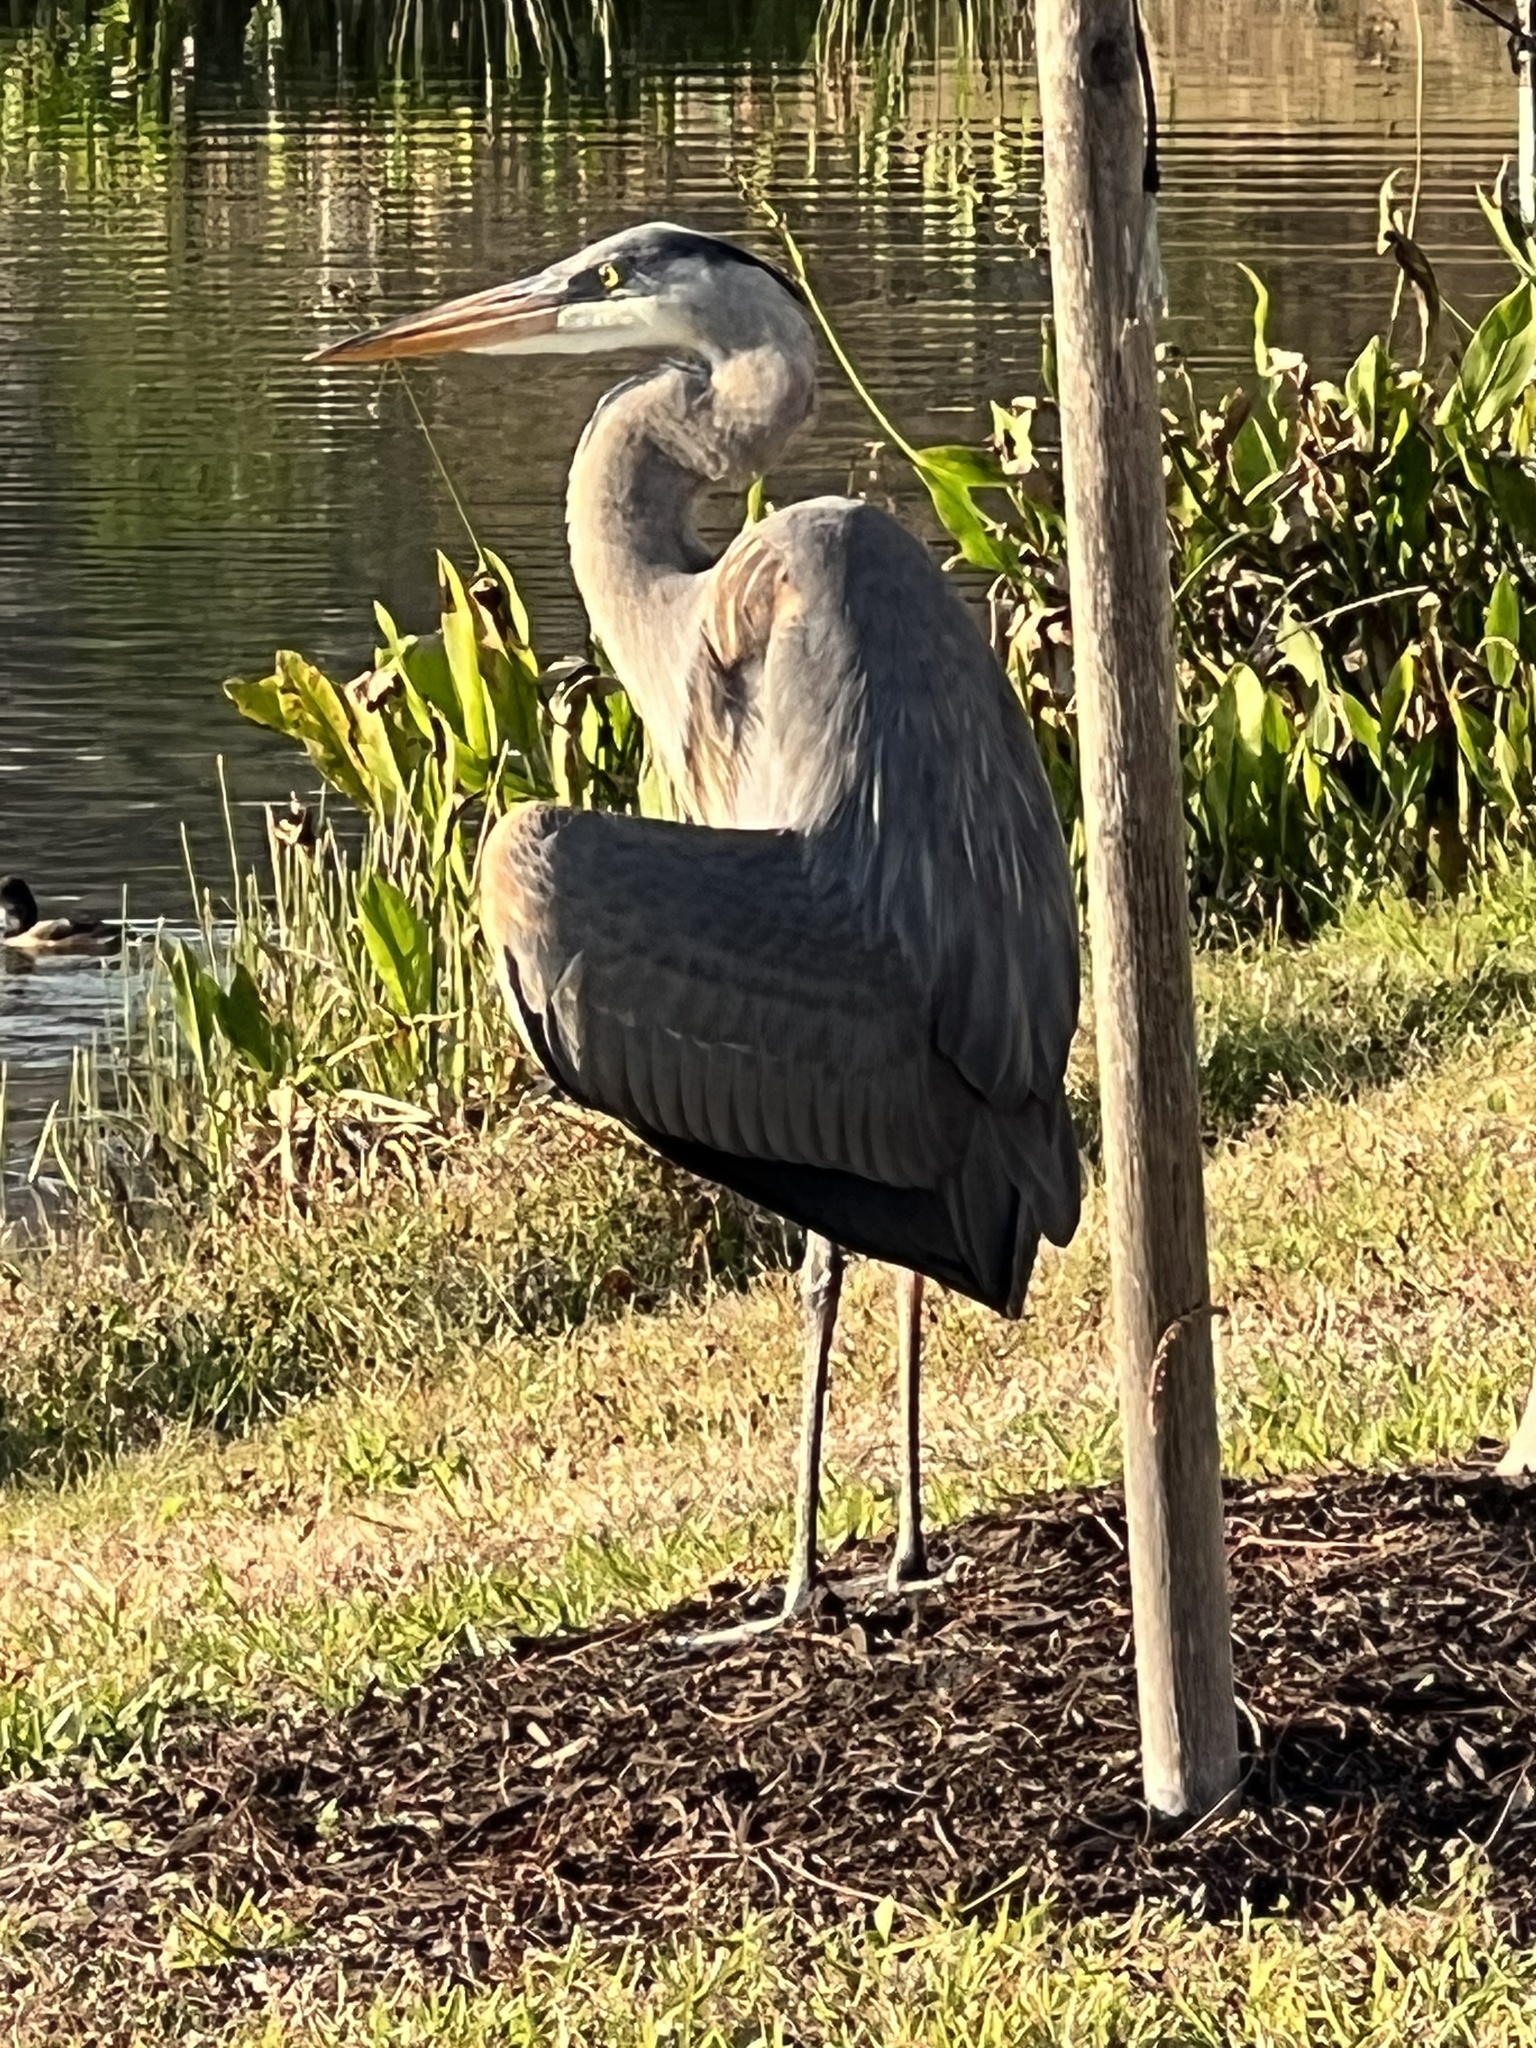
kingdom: Animalia
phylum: Chordata
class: Aves
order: Pelecaniformes
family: Ardeidae
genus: Ardea
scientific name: Ardea herodias
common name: Great blue heron
